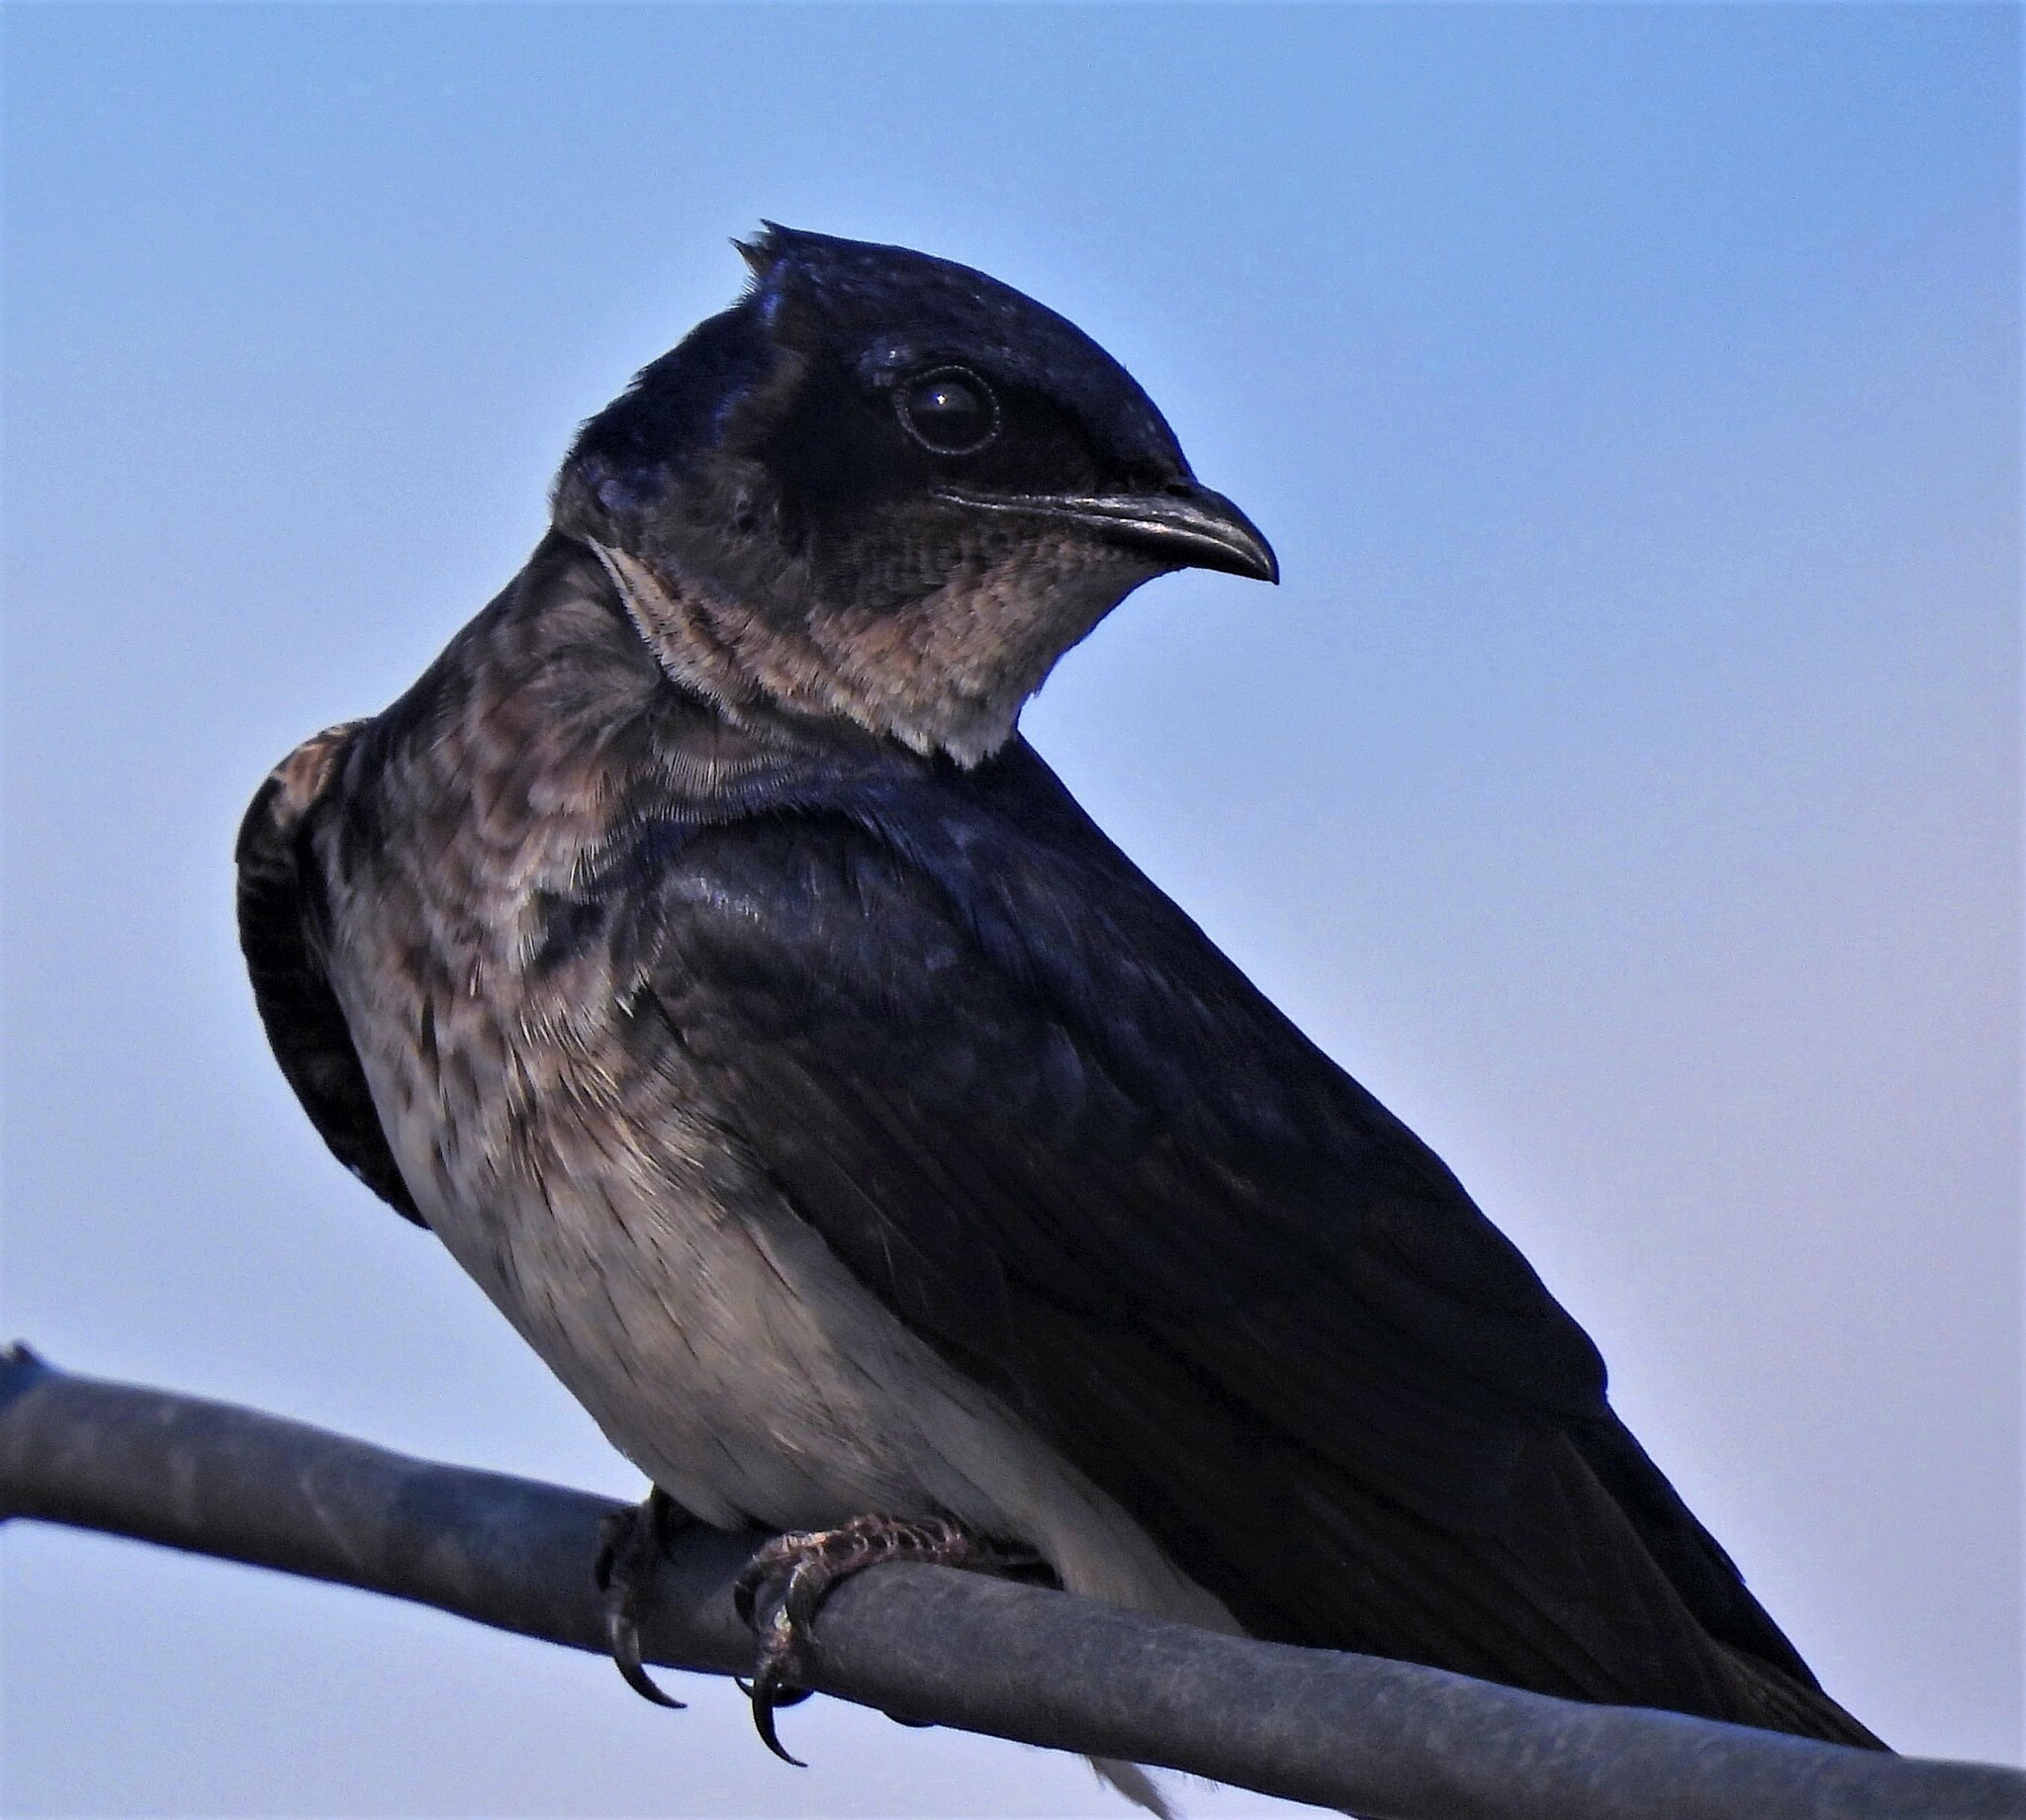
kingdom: Animalia
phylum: Chordata
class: Aves
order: Passeriformes
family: Hirundinidae
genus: Progne
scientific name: Progne chalybea
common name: Grey-breasted martin
